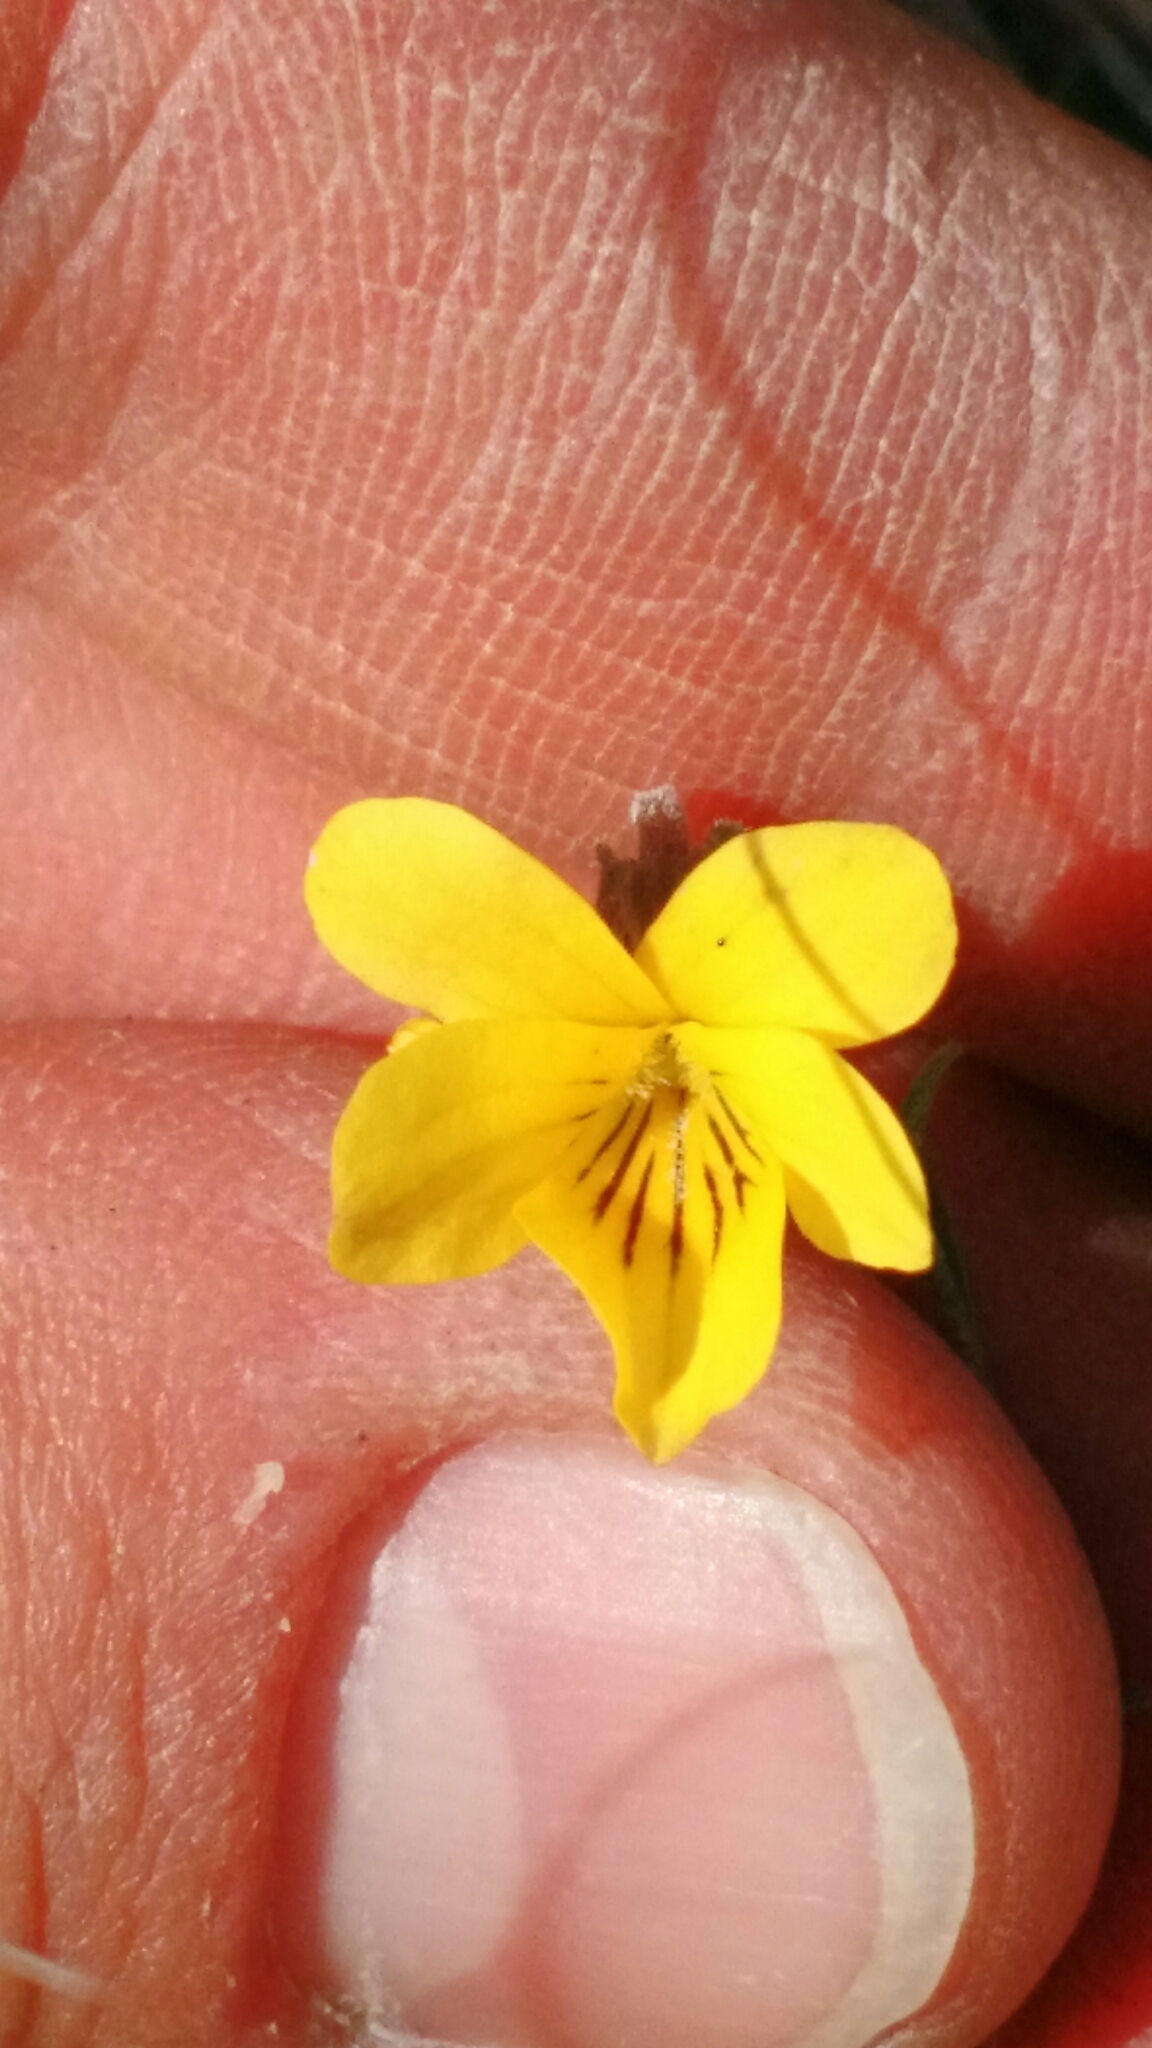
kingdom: Plantae
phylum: Tracheophyta
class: Magnoliopsida
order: Malpighiales
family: Violaceae
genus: Viola
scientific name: Viola nuttallii
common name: Yellow prairie violet
